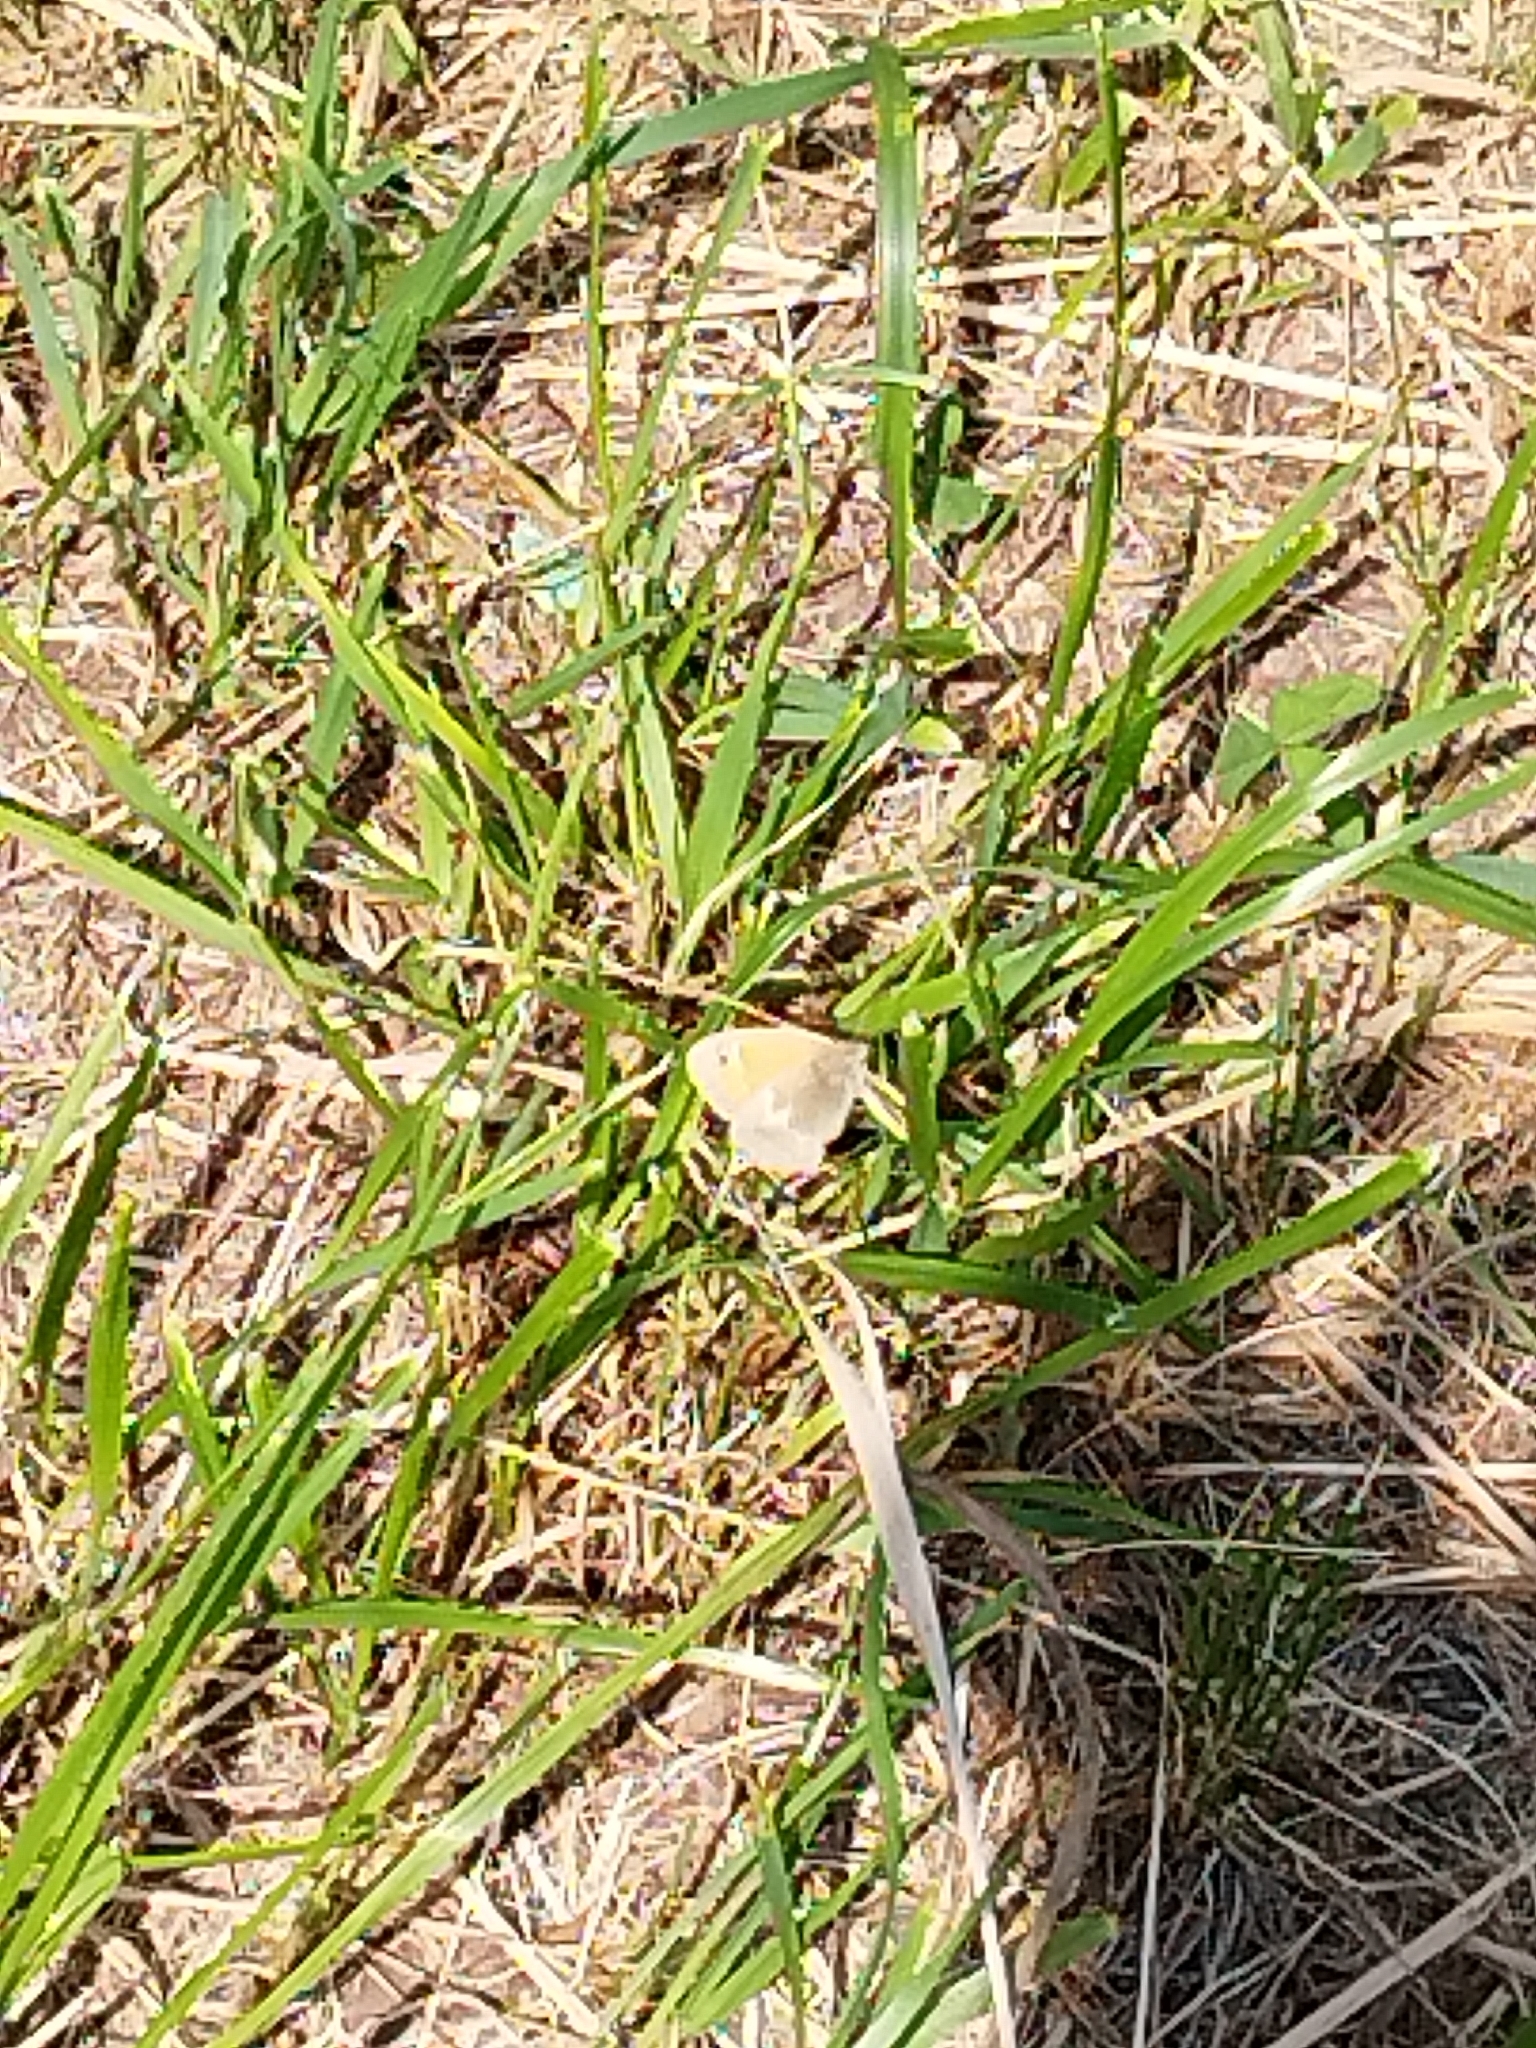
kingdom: Animalia
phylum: Arthropoda
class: Insecta
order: Lepidoptera
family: Nymphalidae
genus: Coenonympha
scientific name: Coenonympha pamphilus
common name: Small heath
